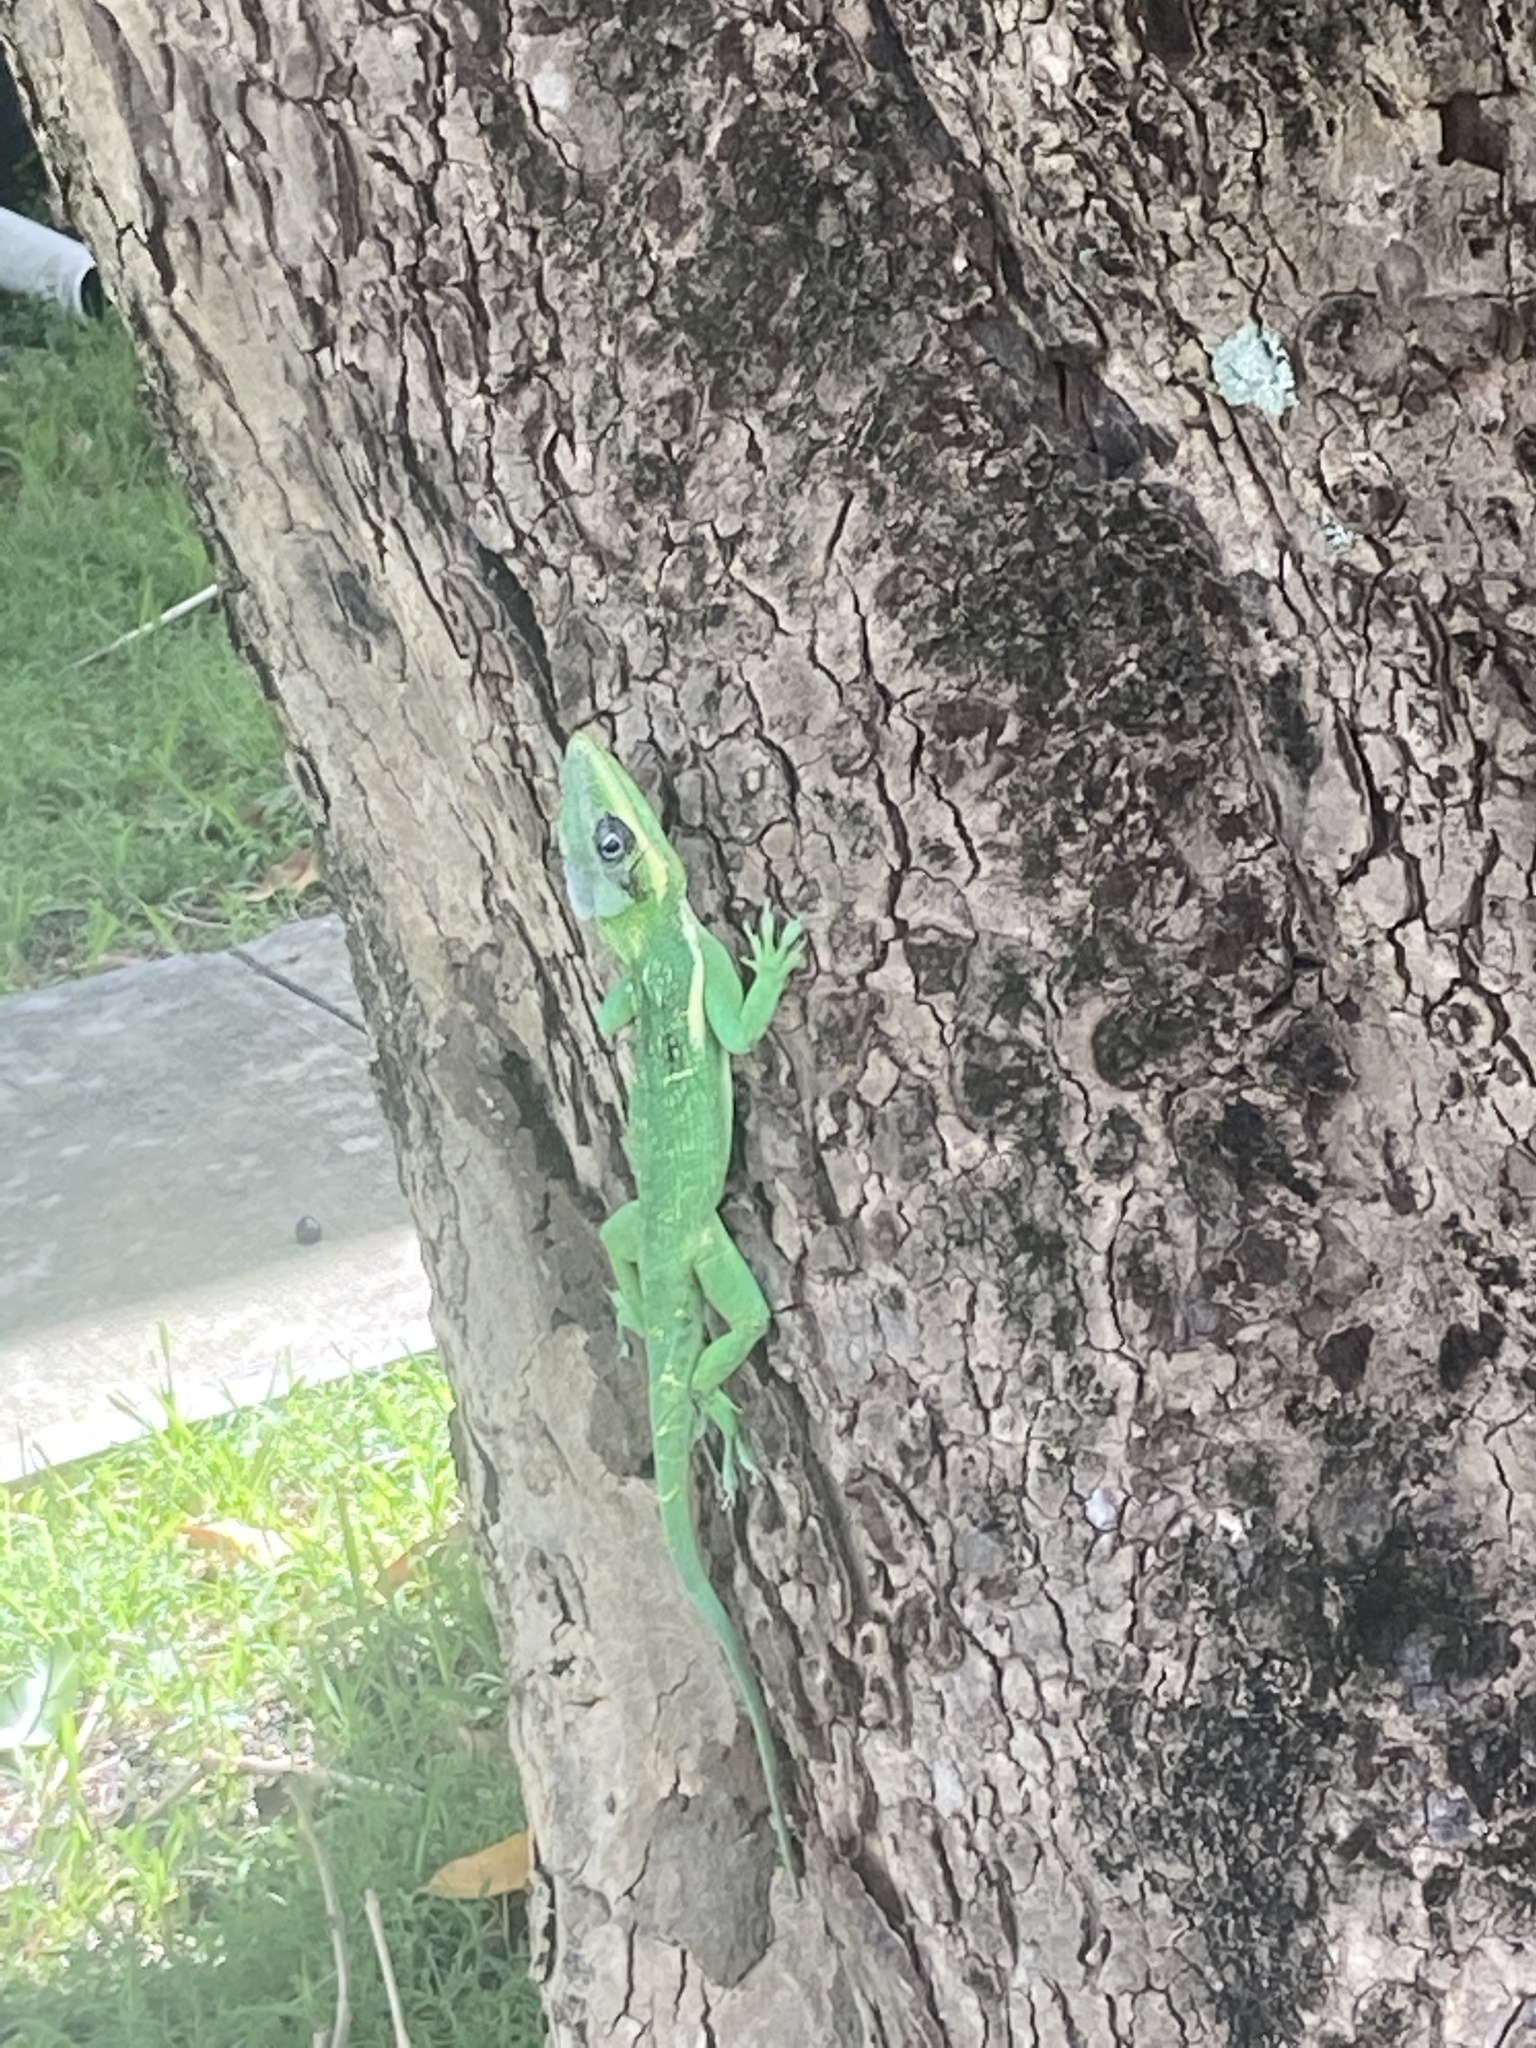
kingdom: Animalia
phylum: Chordata
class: Squamata
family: Dactyloidae
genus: Anolis
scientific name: Anolis equestris
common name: Knight anole
